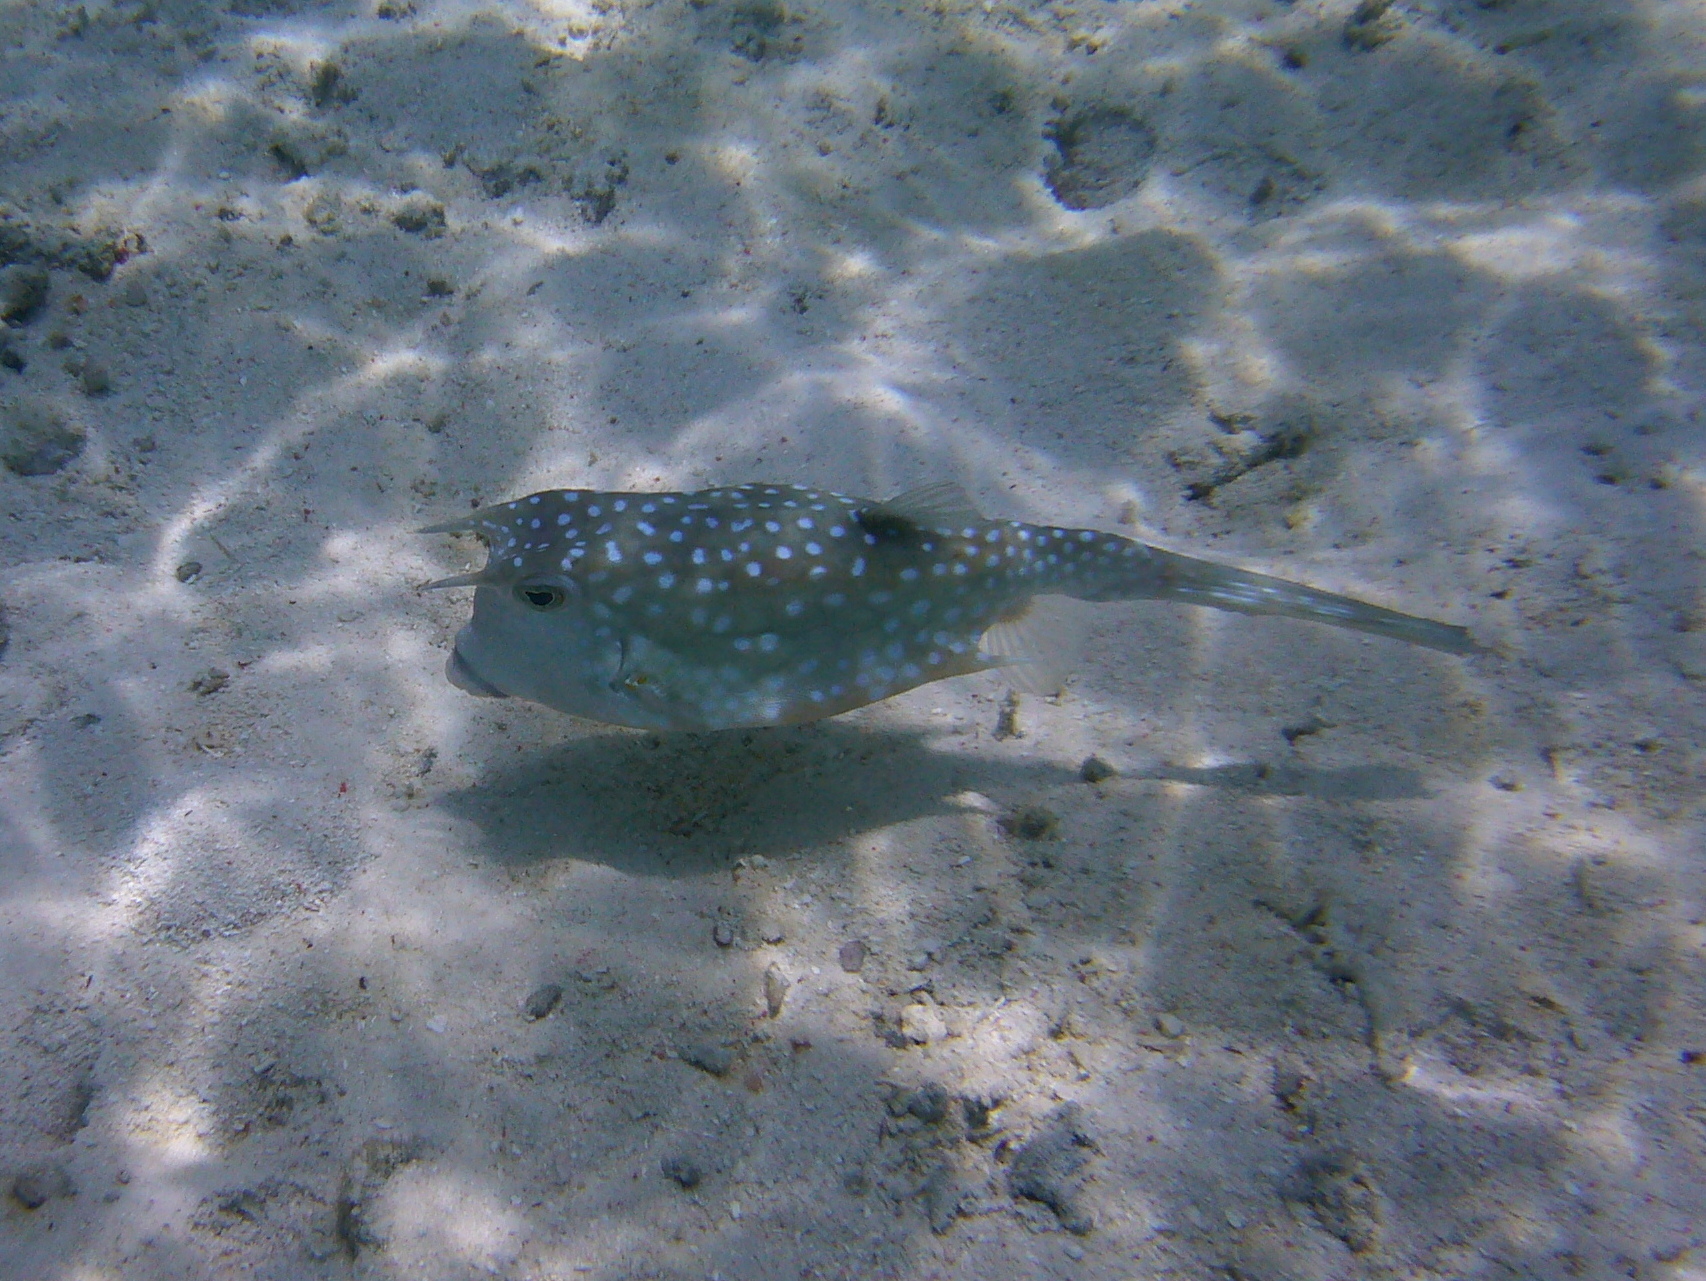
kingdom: Animalia
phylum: Chordata
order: Tetraodontiformes
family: Ostraciidae
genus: Lactoria
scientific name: Lactoria cornuta
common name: Longhorn cowfish
